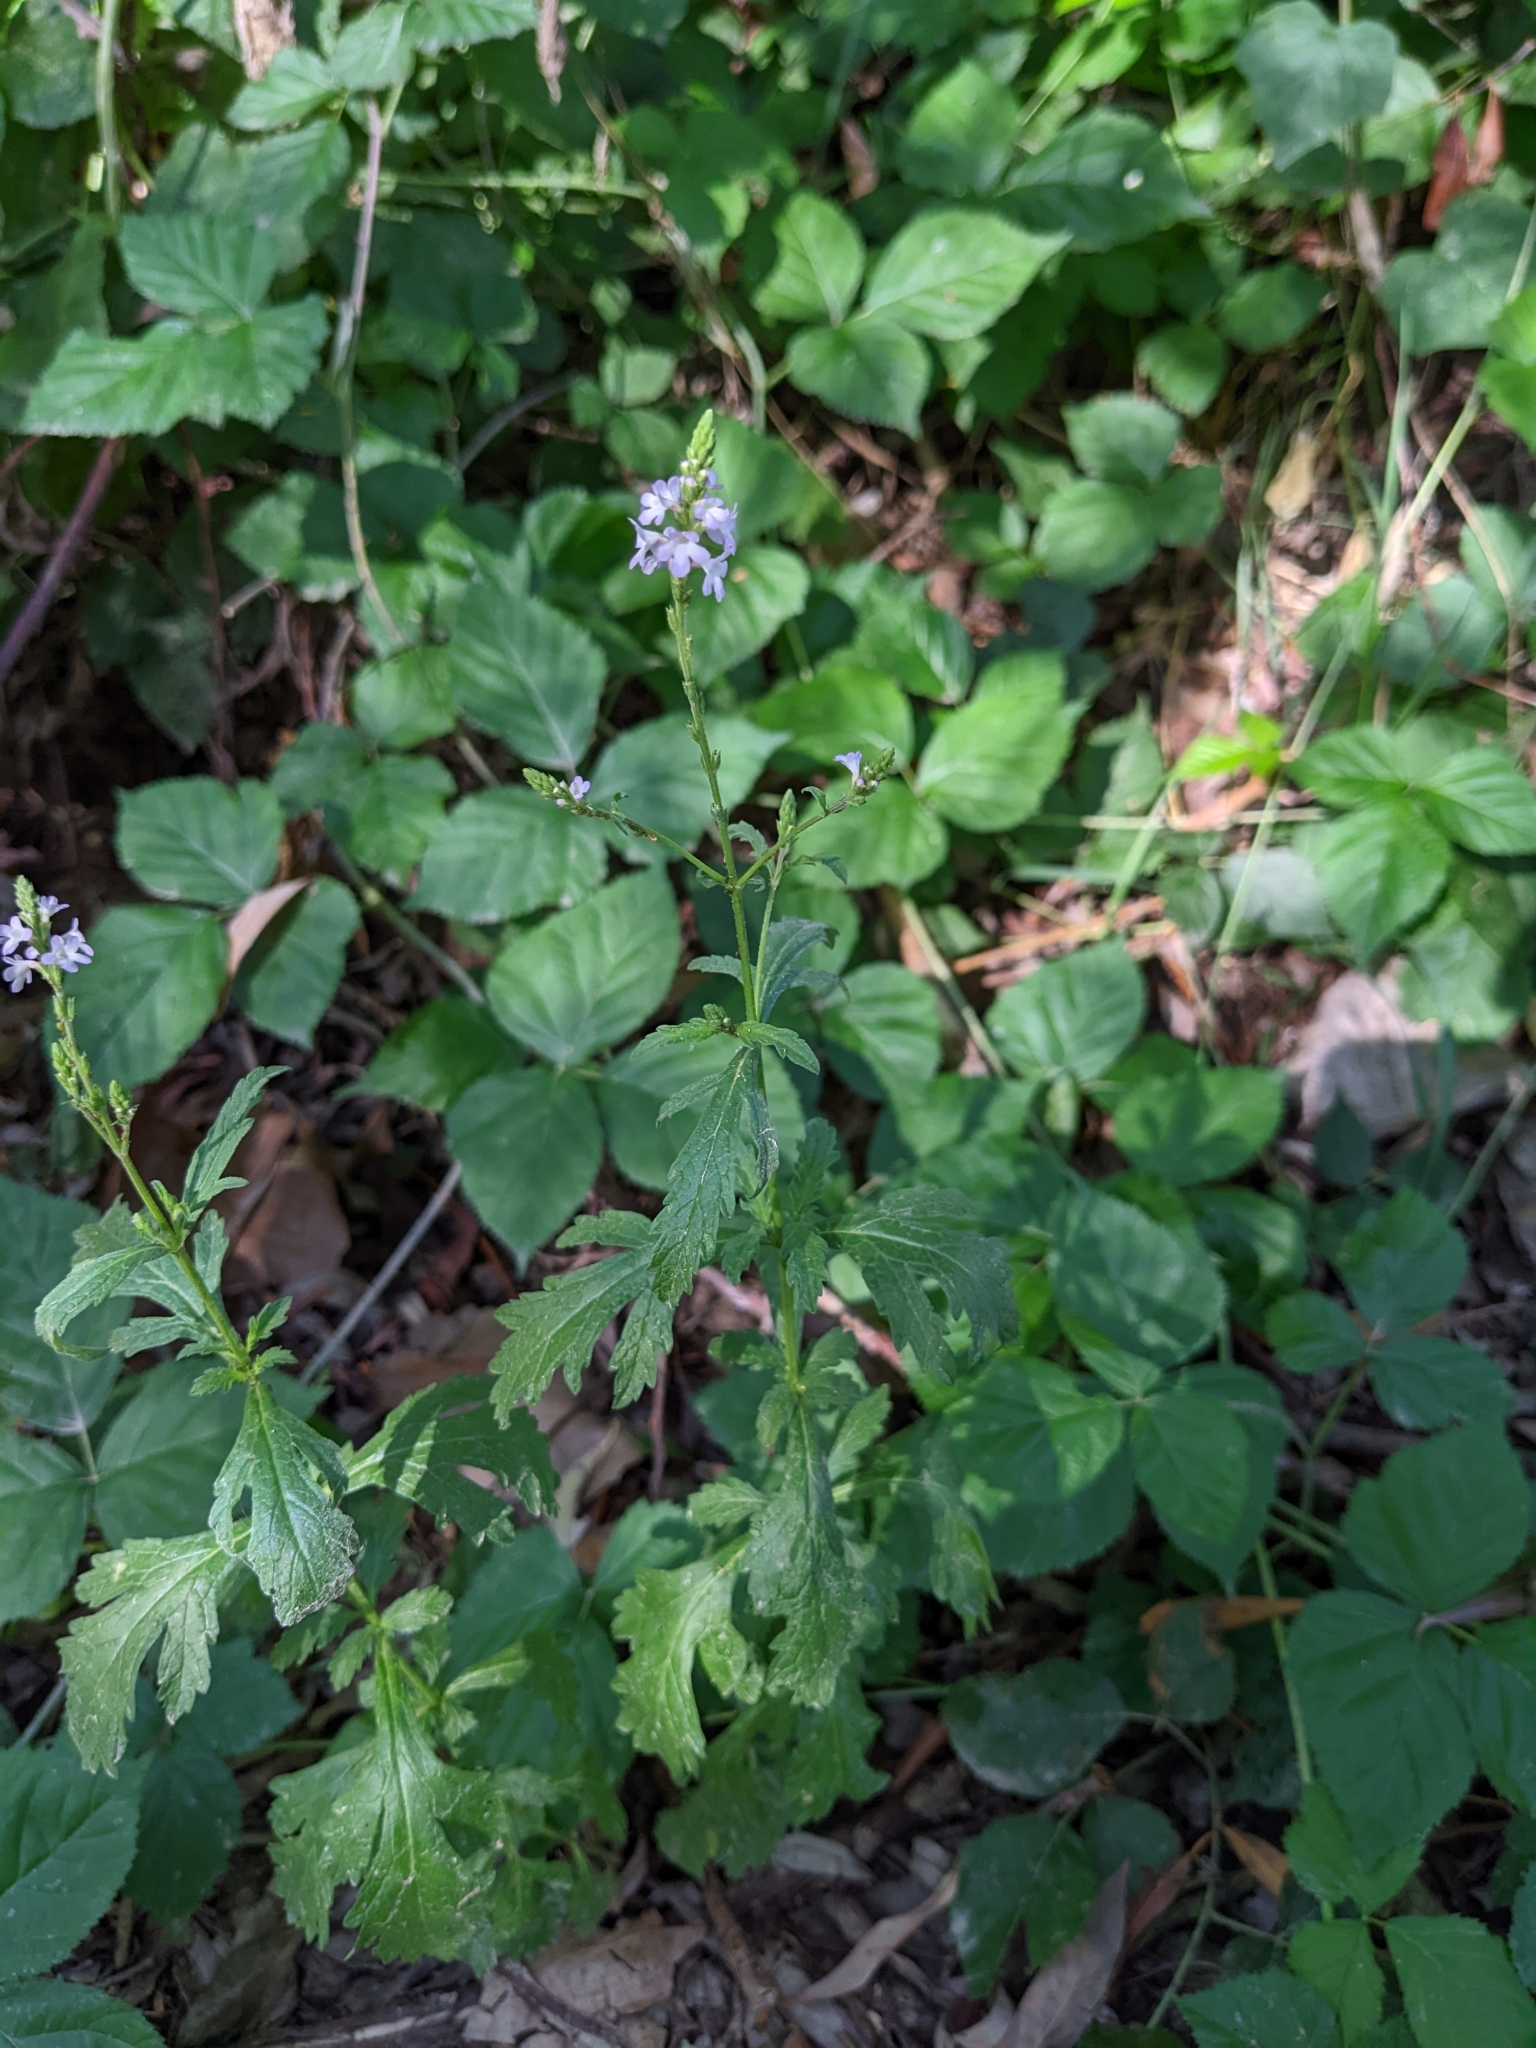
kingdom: Plantae
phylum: Tracheophyta
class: Magnoliopsida
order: Lamiales
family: Verbenaceae
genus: Verbena
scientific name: Verbena officinalis
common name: Vervain
